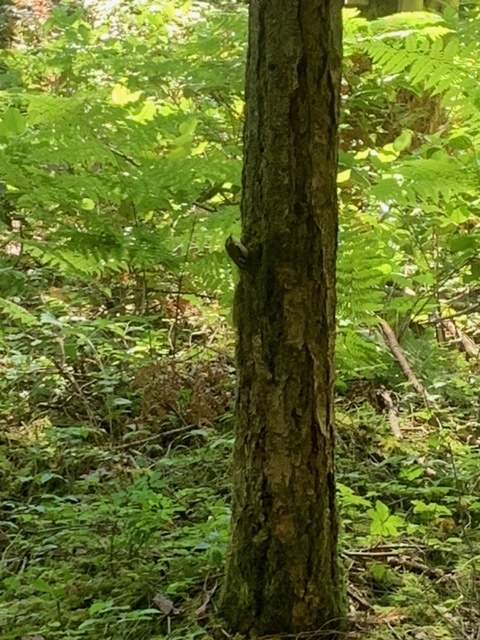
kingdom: Animalia
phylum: Chordata
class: Aves
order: Passeriformes
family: Certhiidae
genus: Certhia
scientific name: Certhia americana
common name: Brown creeper
